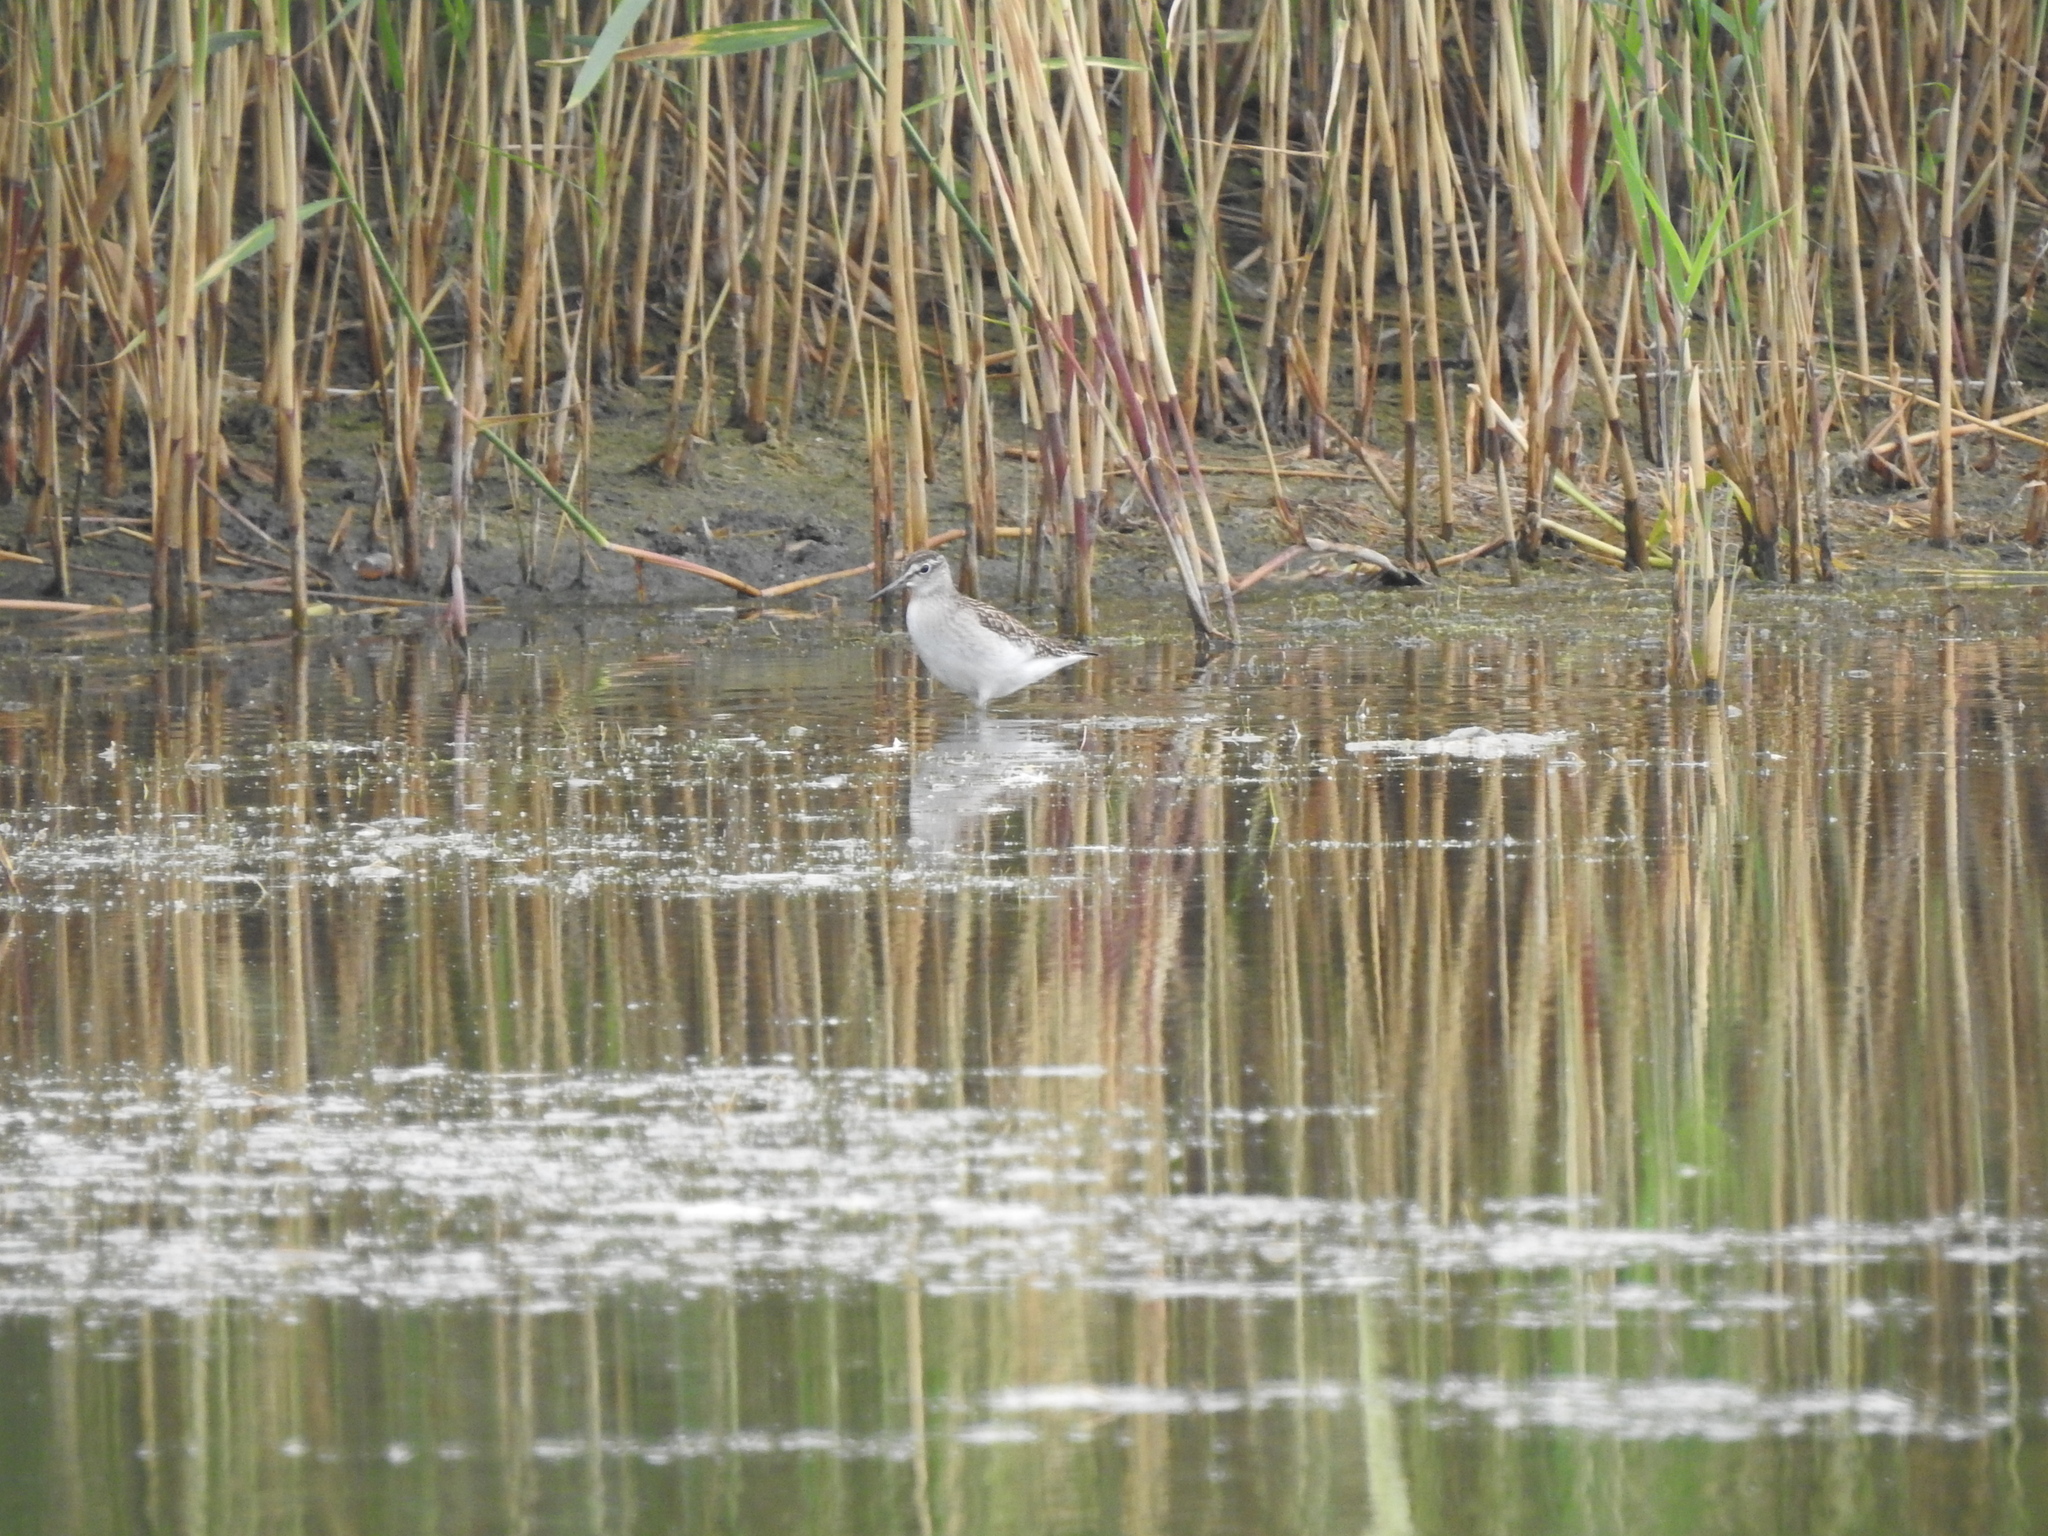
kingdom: Animalia
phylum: Chordata
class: Aves
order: Charadriiformes
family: Scolopacidae
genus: Tringa
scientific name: Tringa glareola
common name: Wood sandpiper
